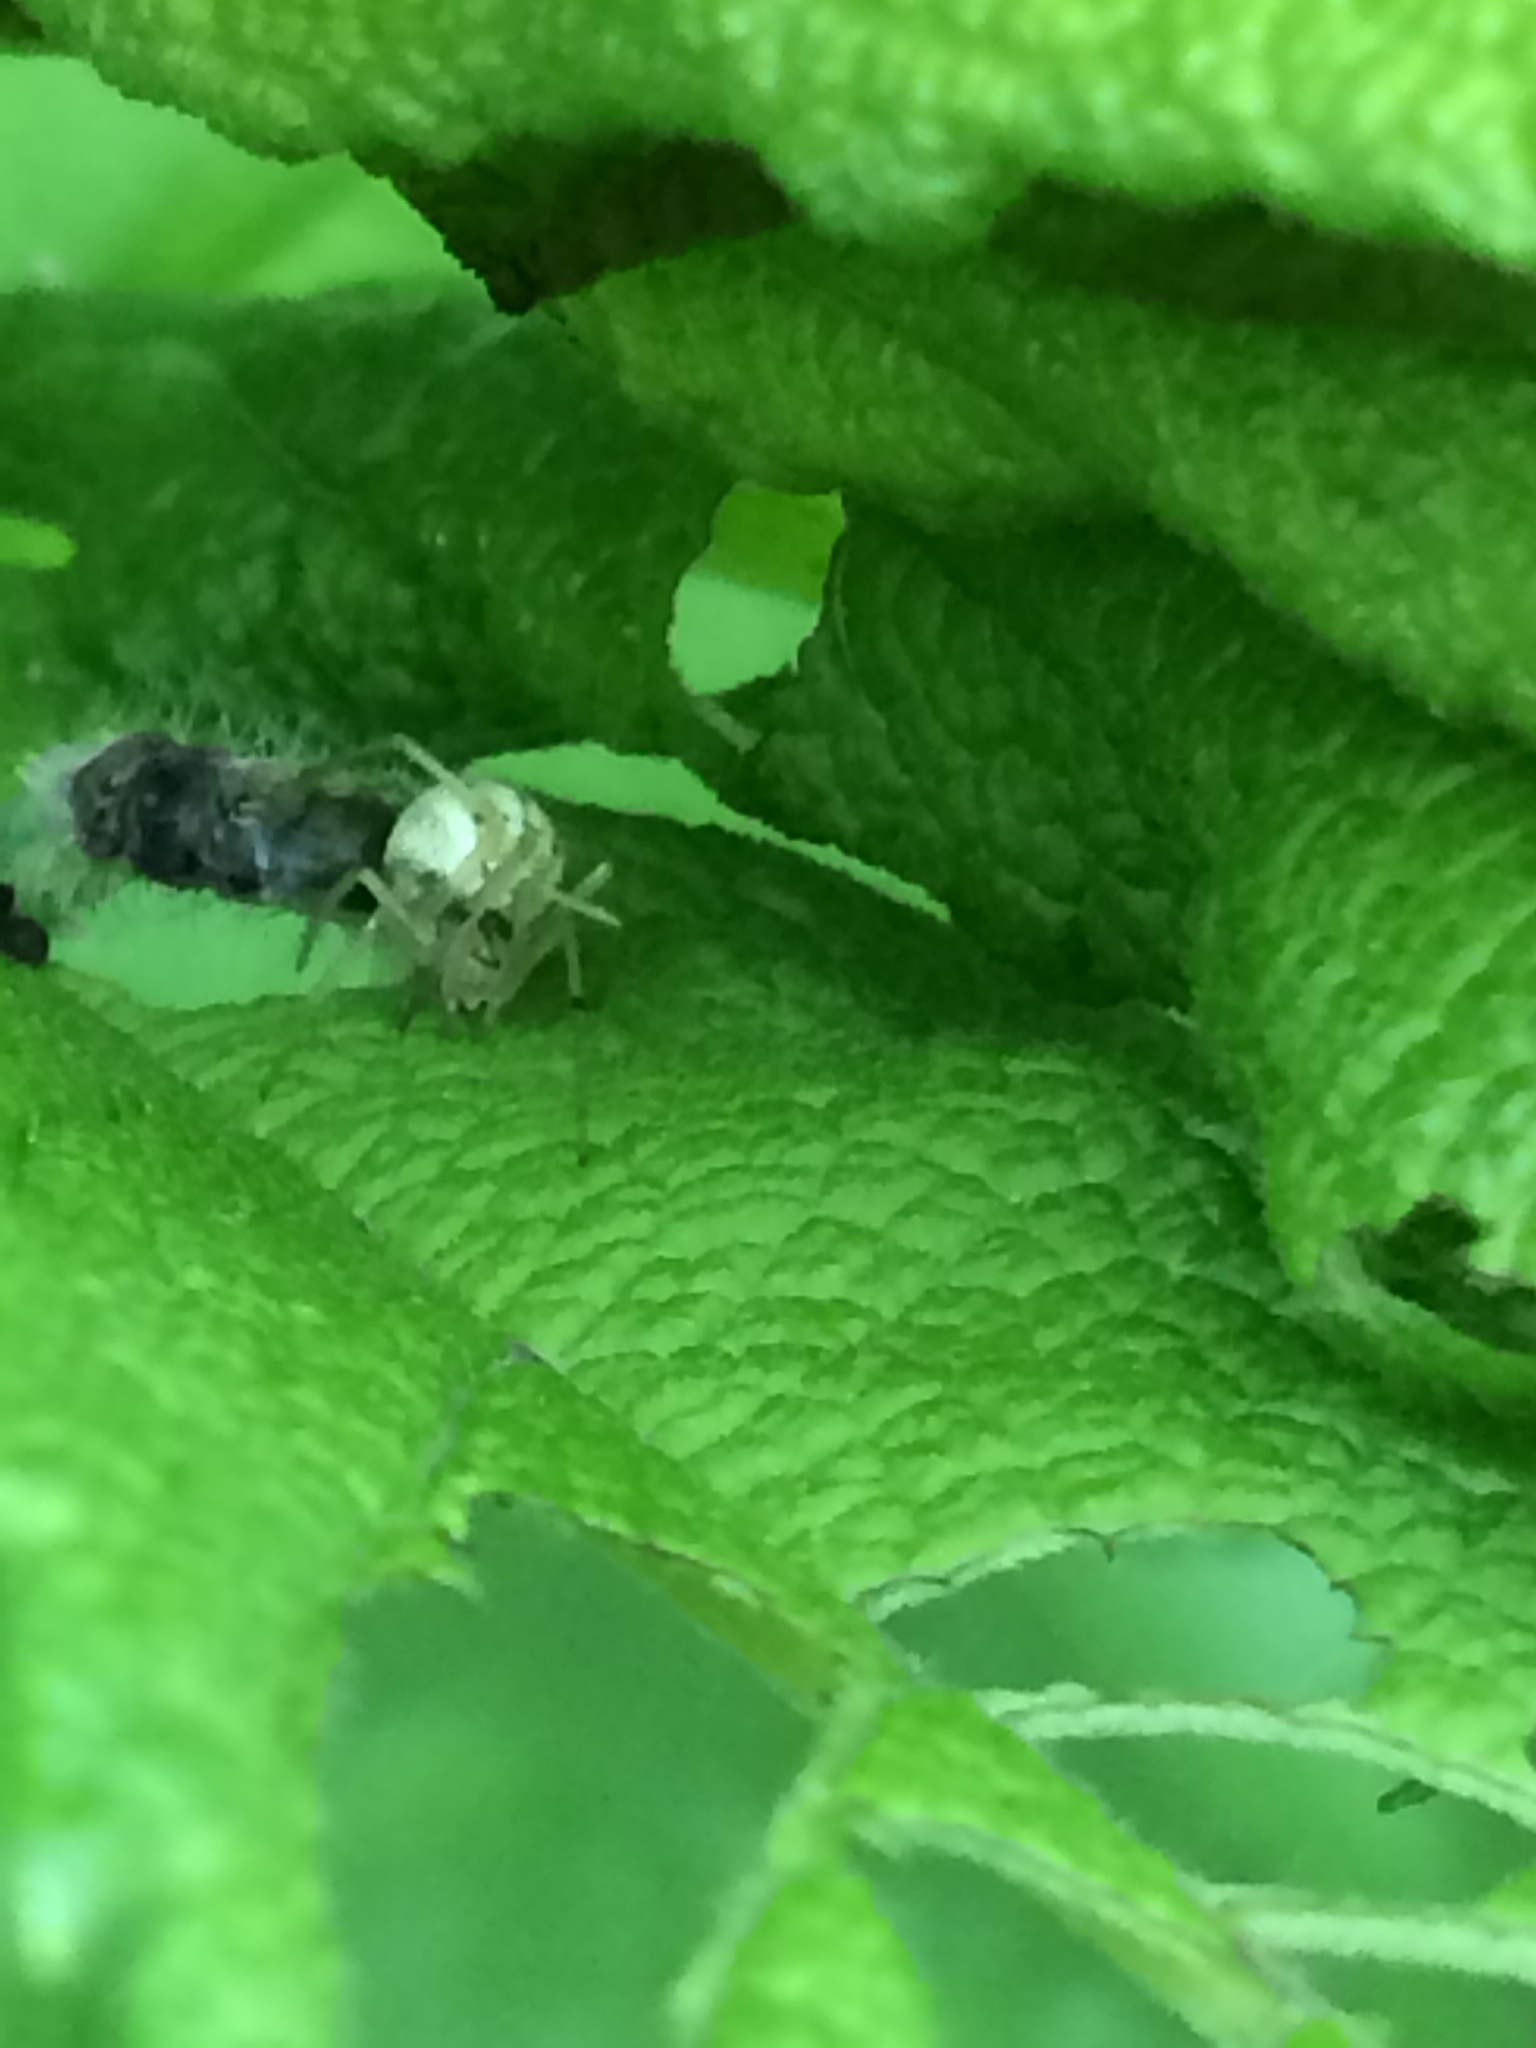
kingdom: Animalia
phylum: Arthropoda
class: Arachnida
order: Araneae
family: Theridiidae
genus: Enoplognatha
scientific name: Enoplognatha ovata
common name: Common candy-striped spider
